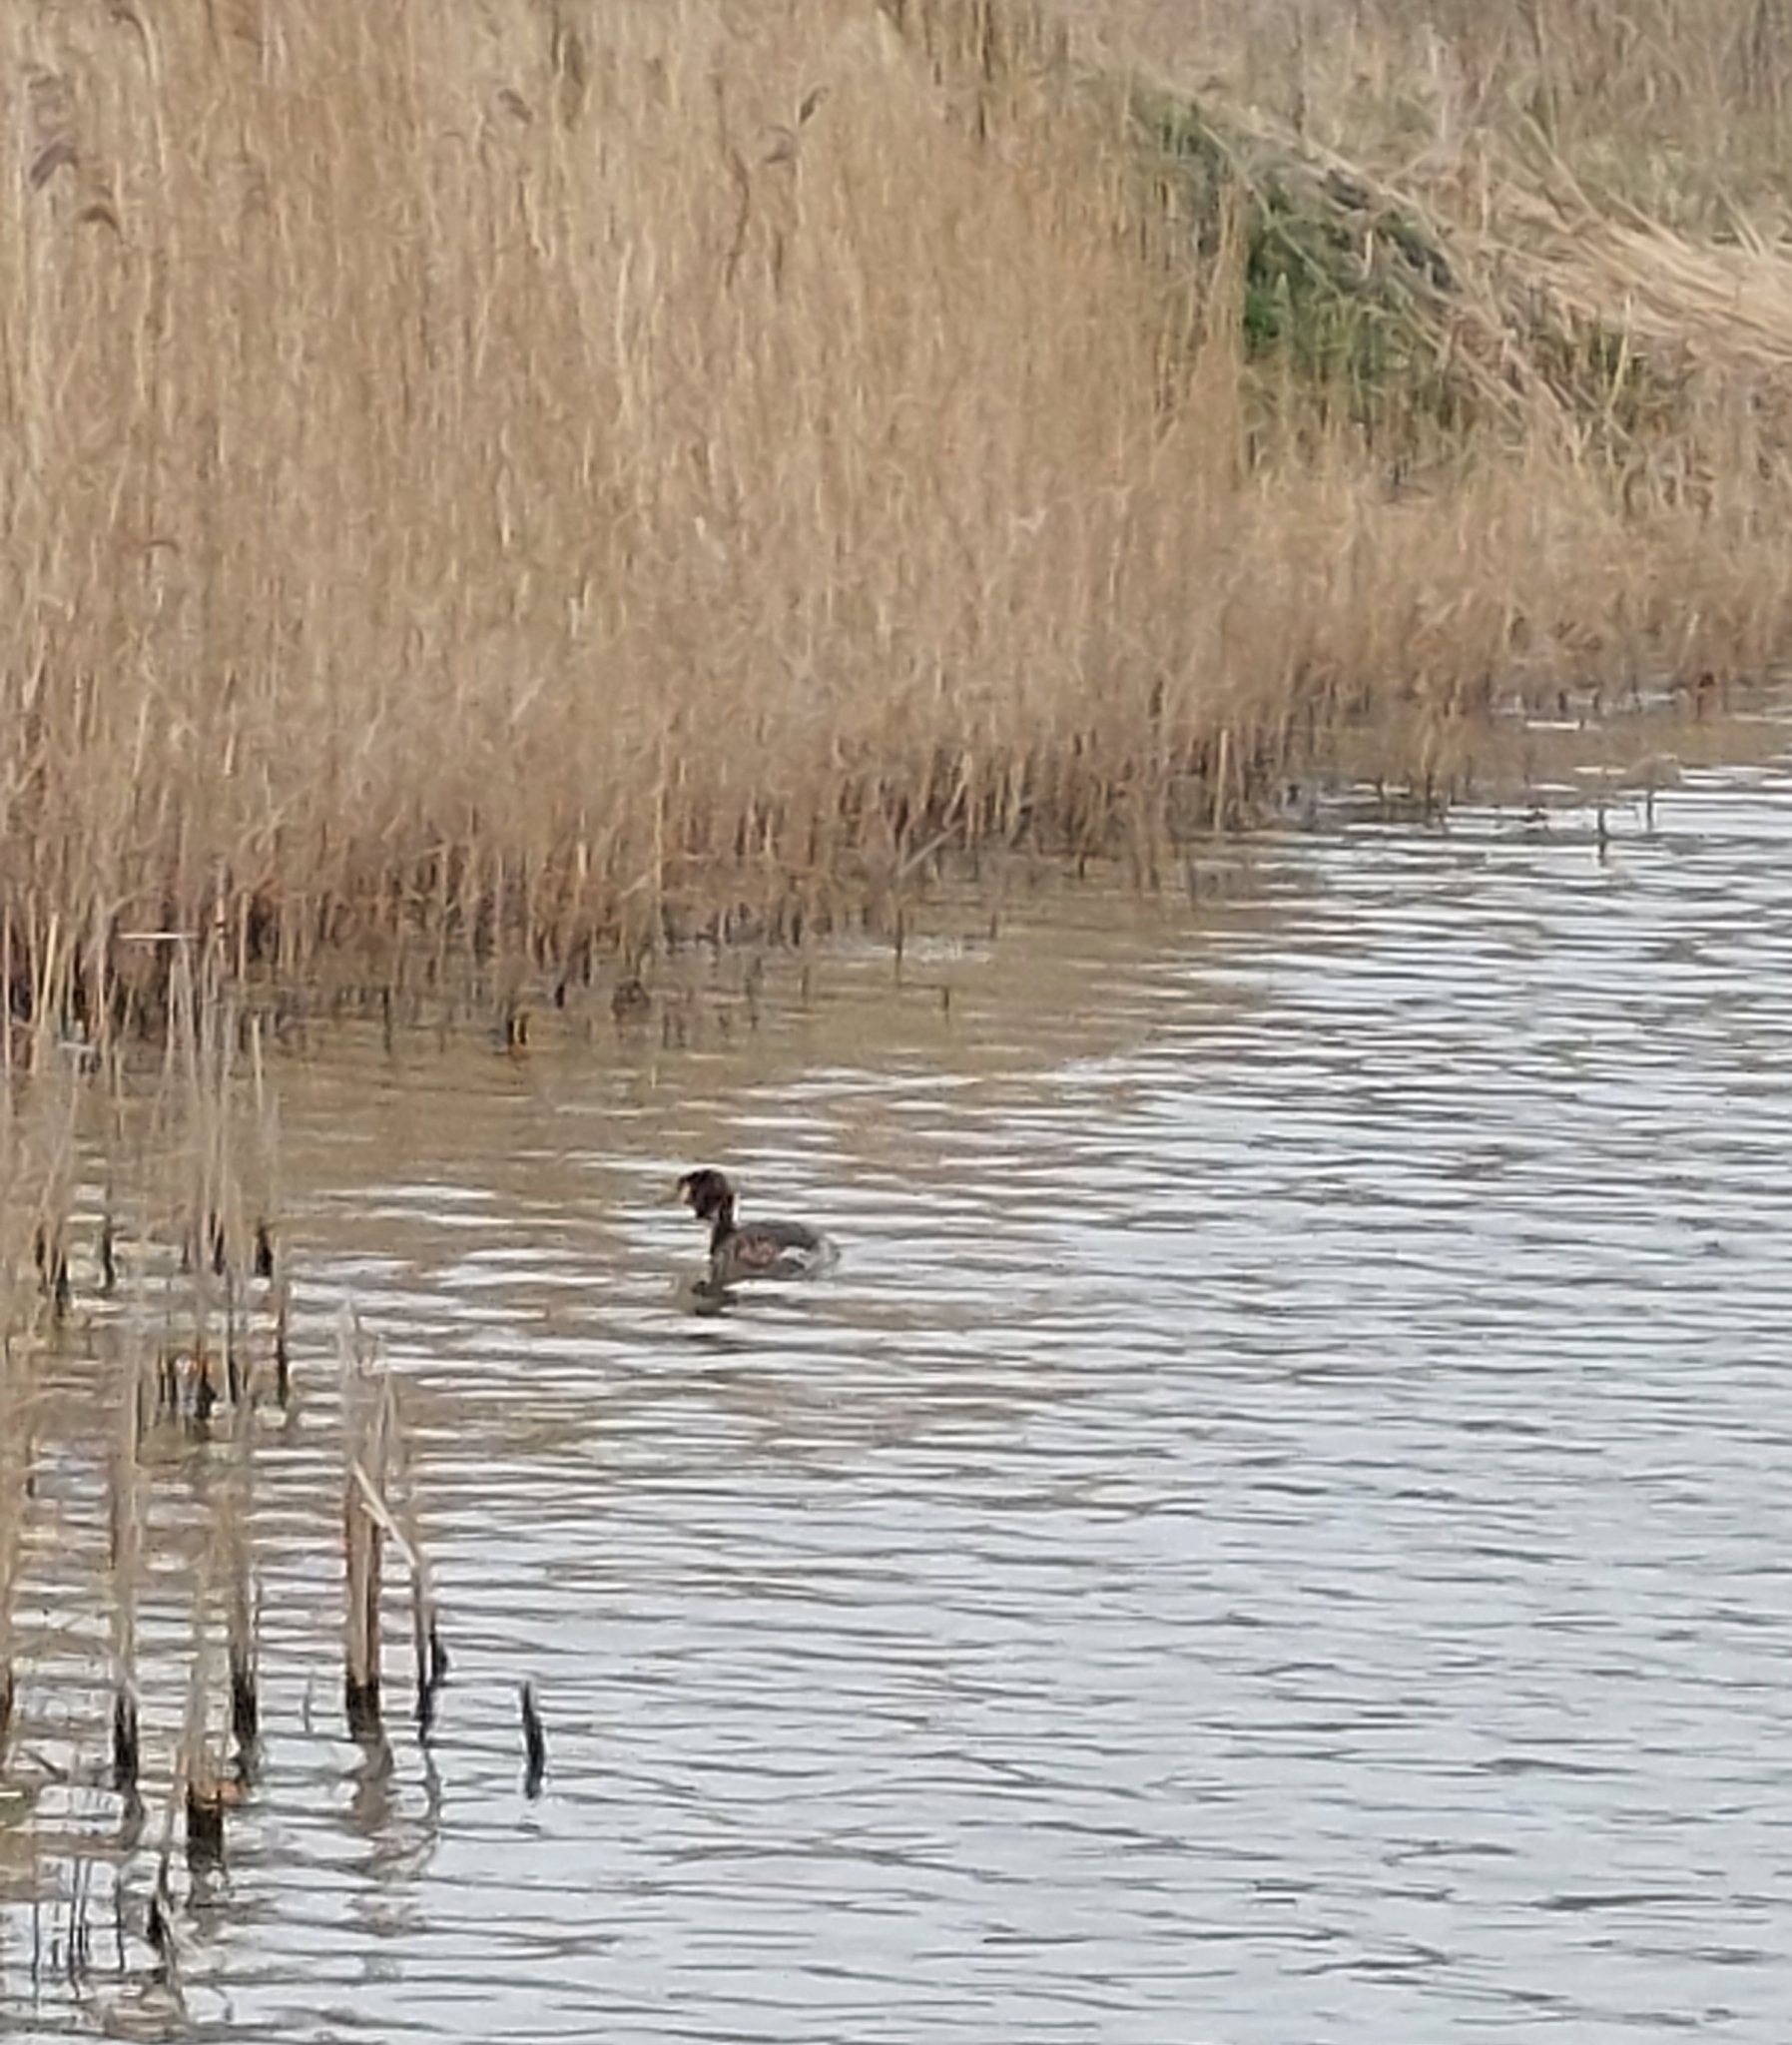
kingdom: Animalia
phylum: Chordata
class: Aves
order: Podicipediformes
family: Podicipedidae
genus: Podiceps
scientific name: Podiceps cristatus
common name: Great crested grebe
